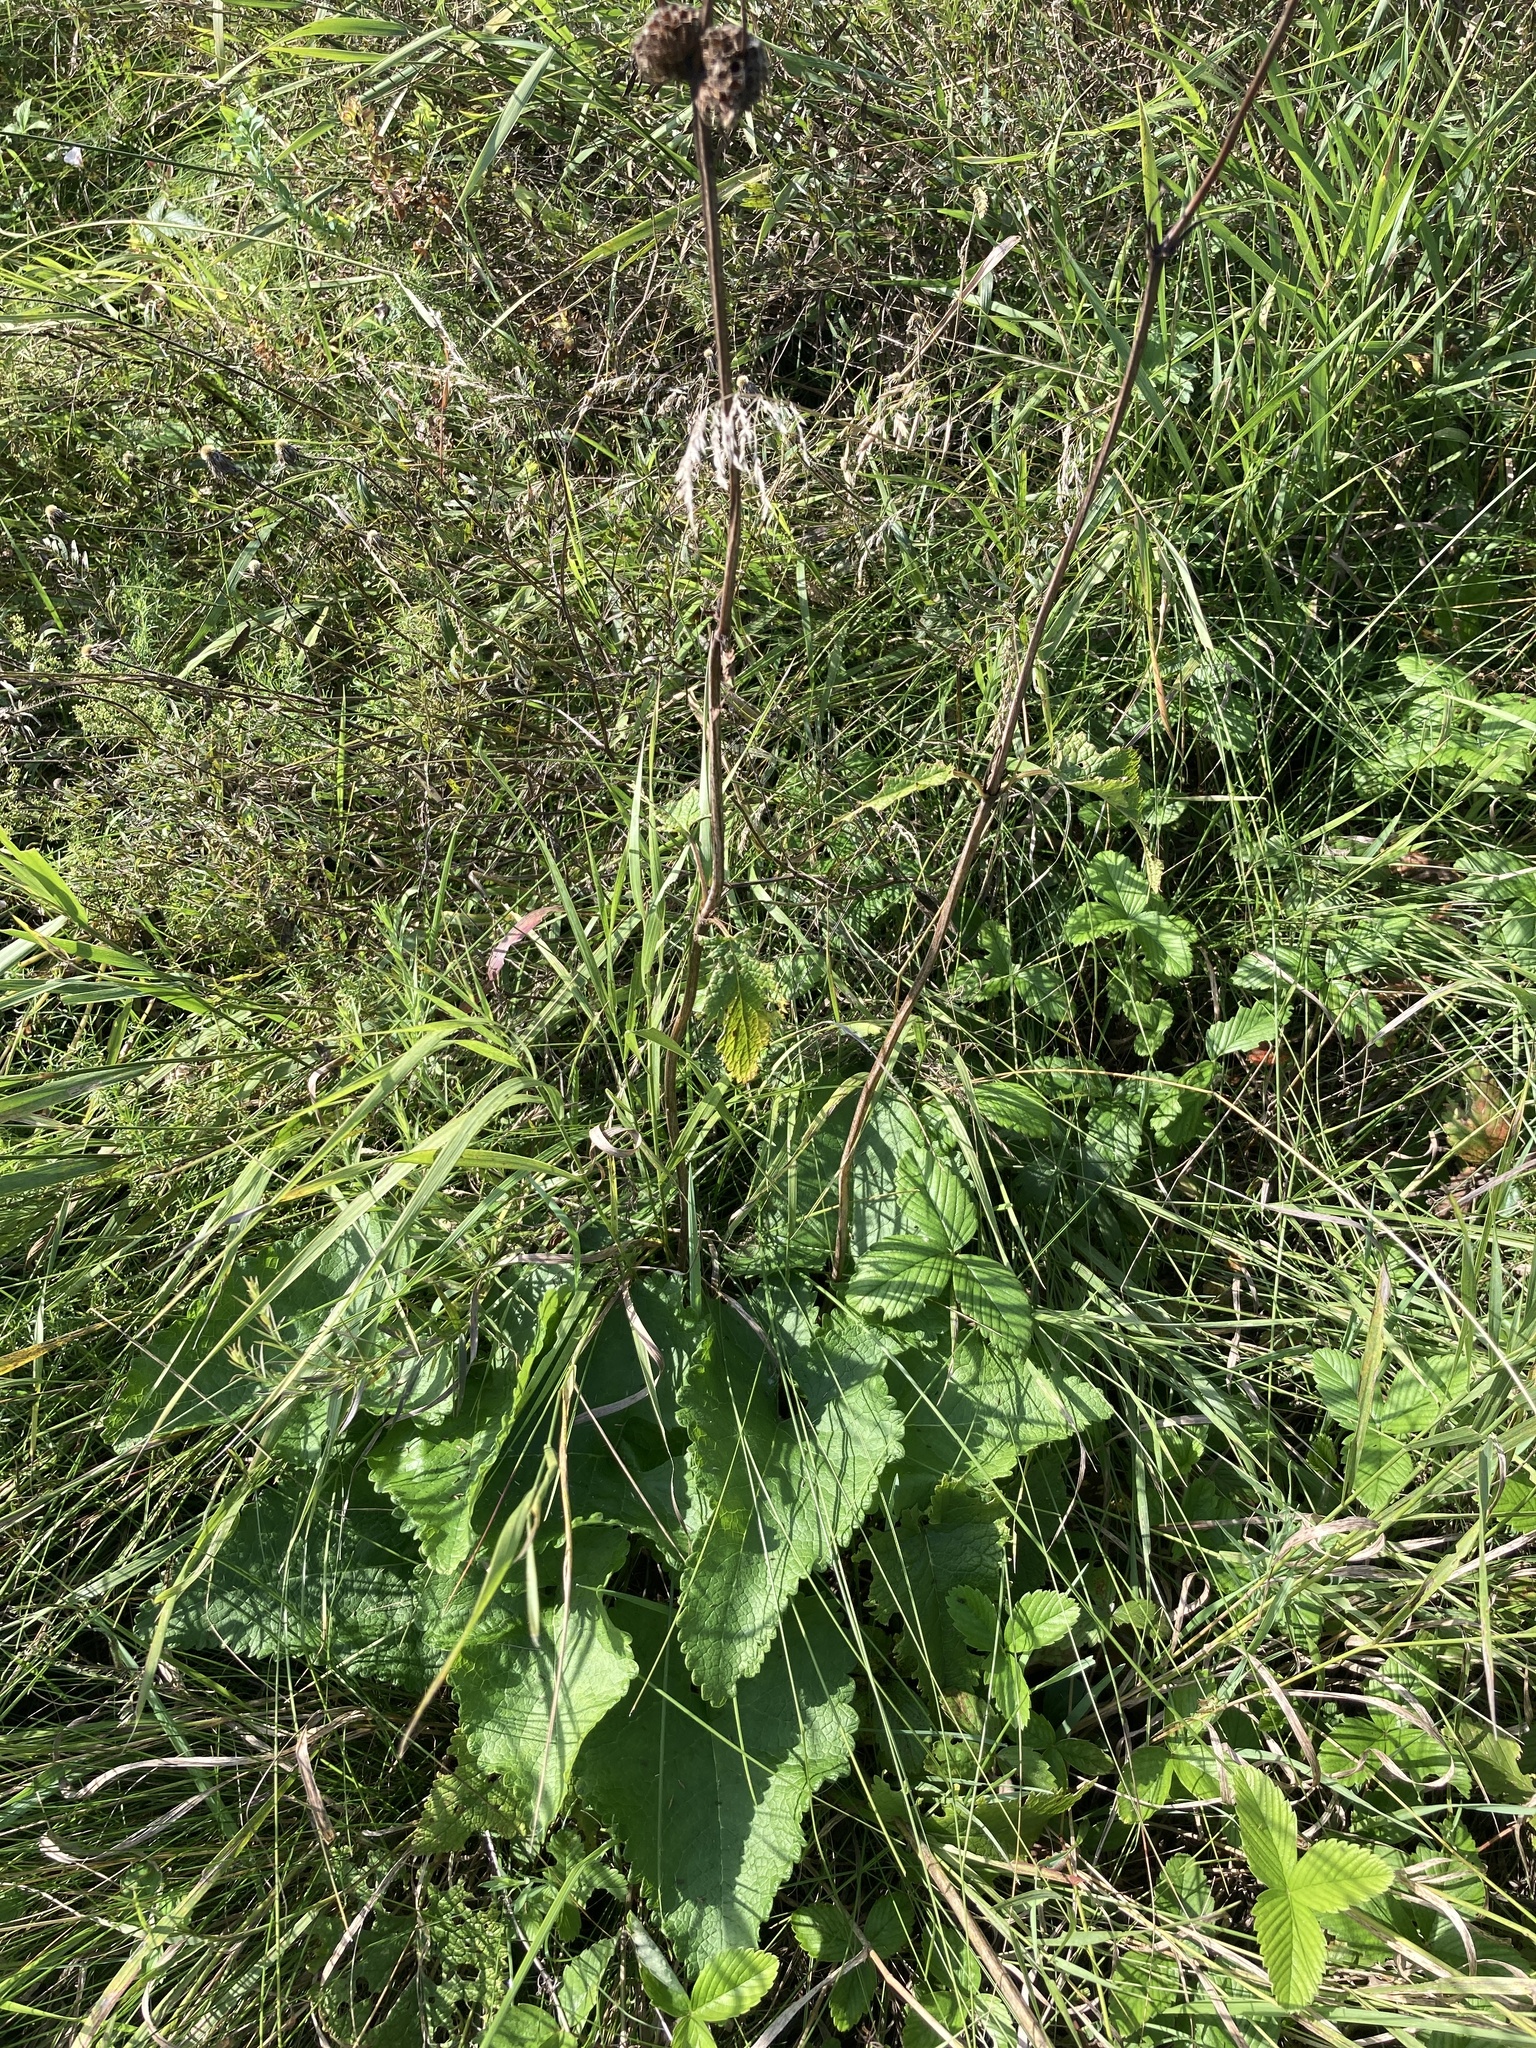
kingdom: Plantae
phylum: Tracheophyta
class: Magnoliopsida
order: Lamiales
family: Lamiaceae
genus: Salvia
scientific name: Salvia nutans
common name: Nodding sage
